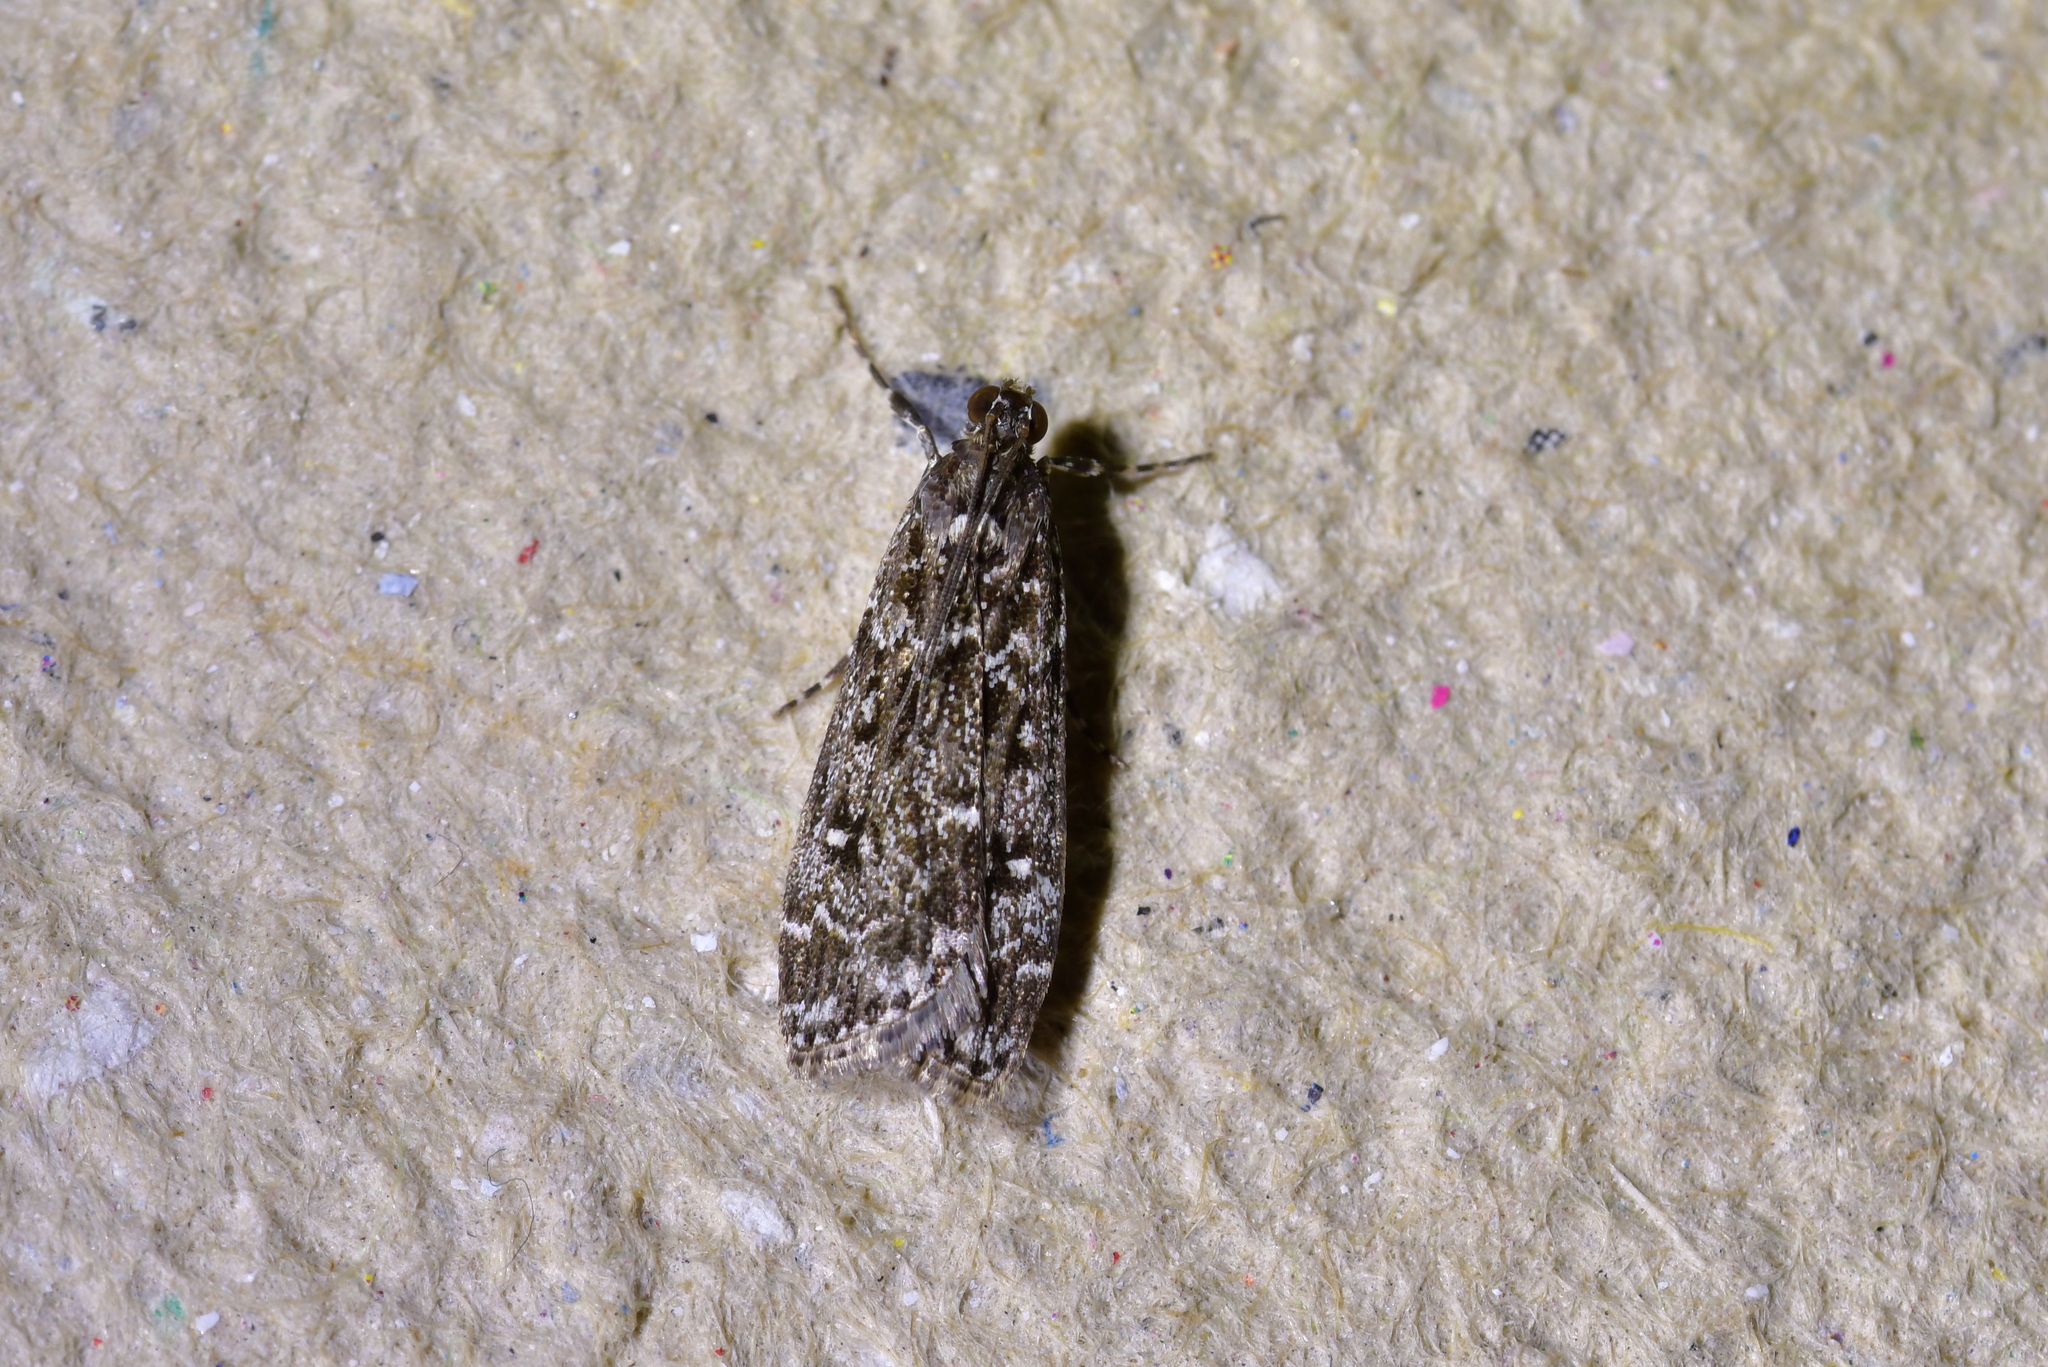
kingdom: Animalia
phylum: Arthropoda
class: Insecta
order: Lepidoptera
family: Crambidae
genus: Eudonia
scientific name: Eudonia philerga
